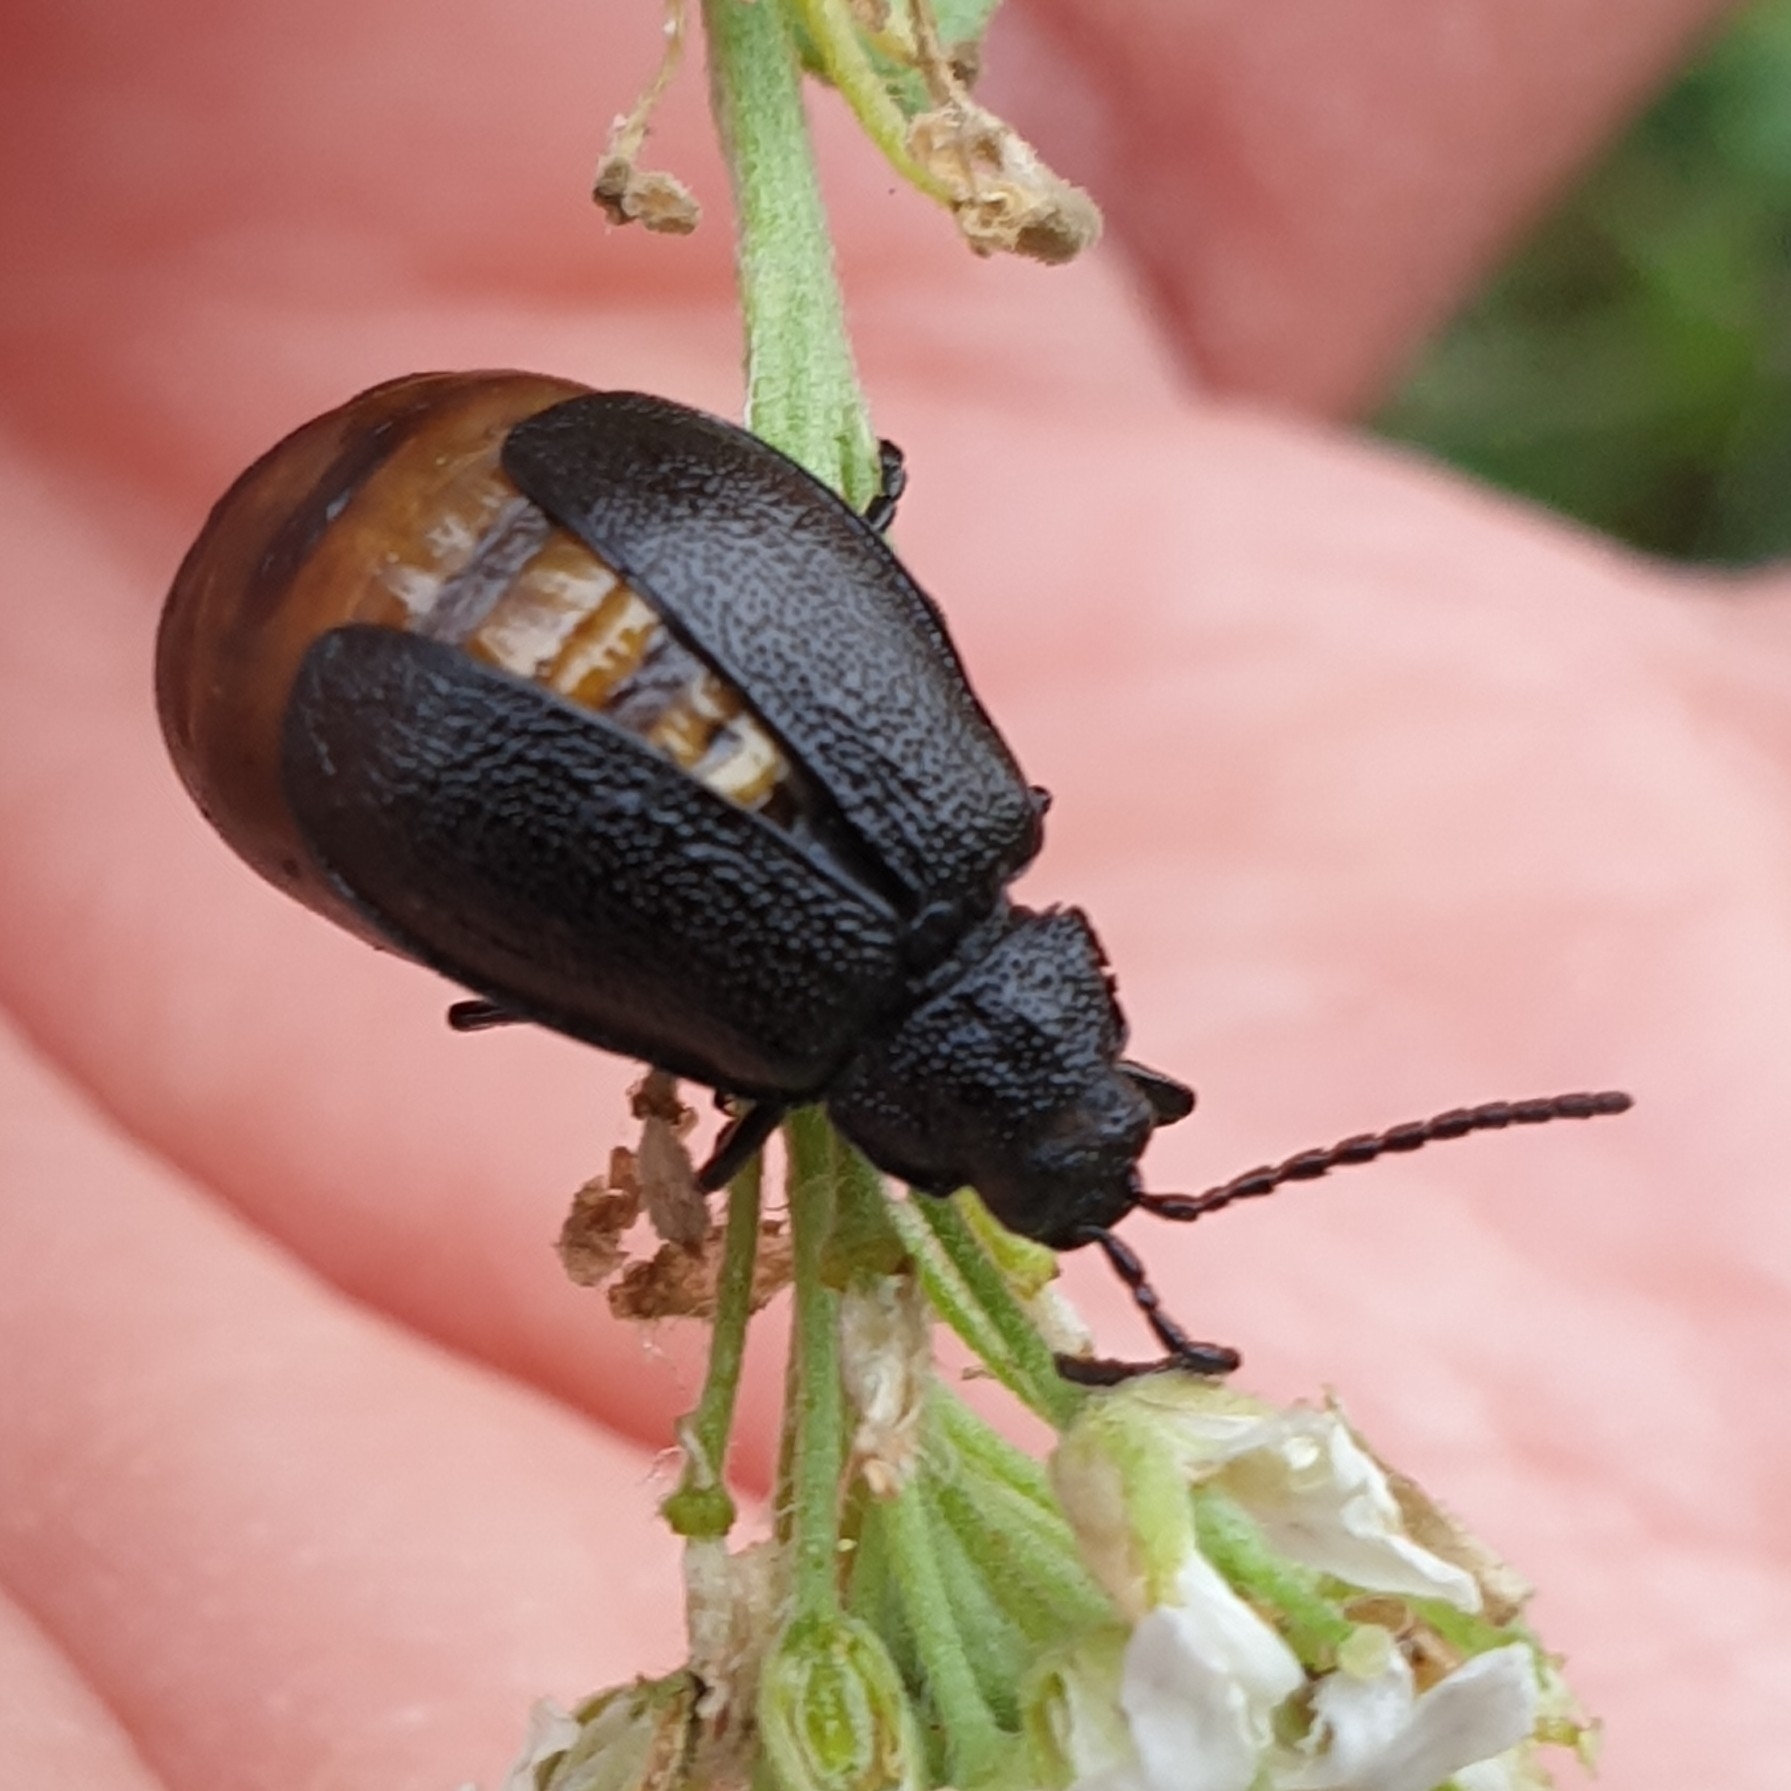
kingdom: Animalia
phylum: Arthropoda
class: Insecta
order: Coleoptera
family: Chrysomelidae
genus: Galeruca
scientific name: Galeruca tanaceti
